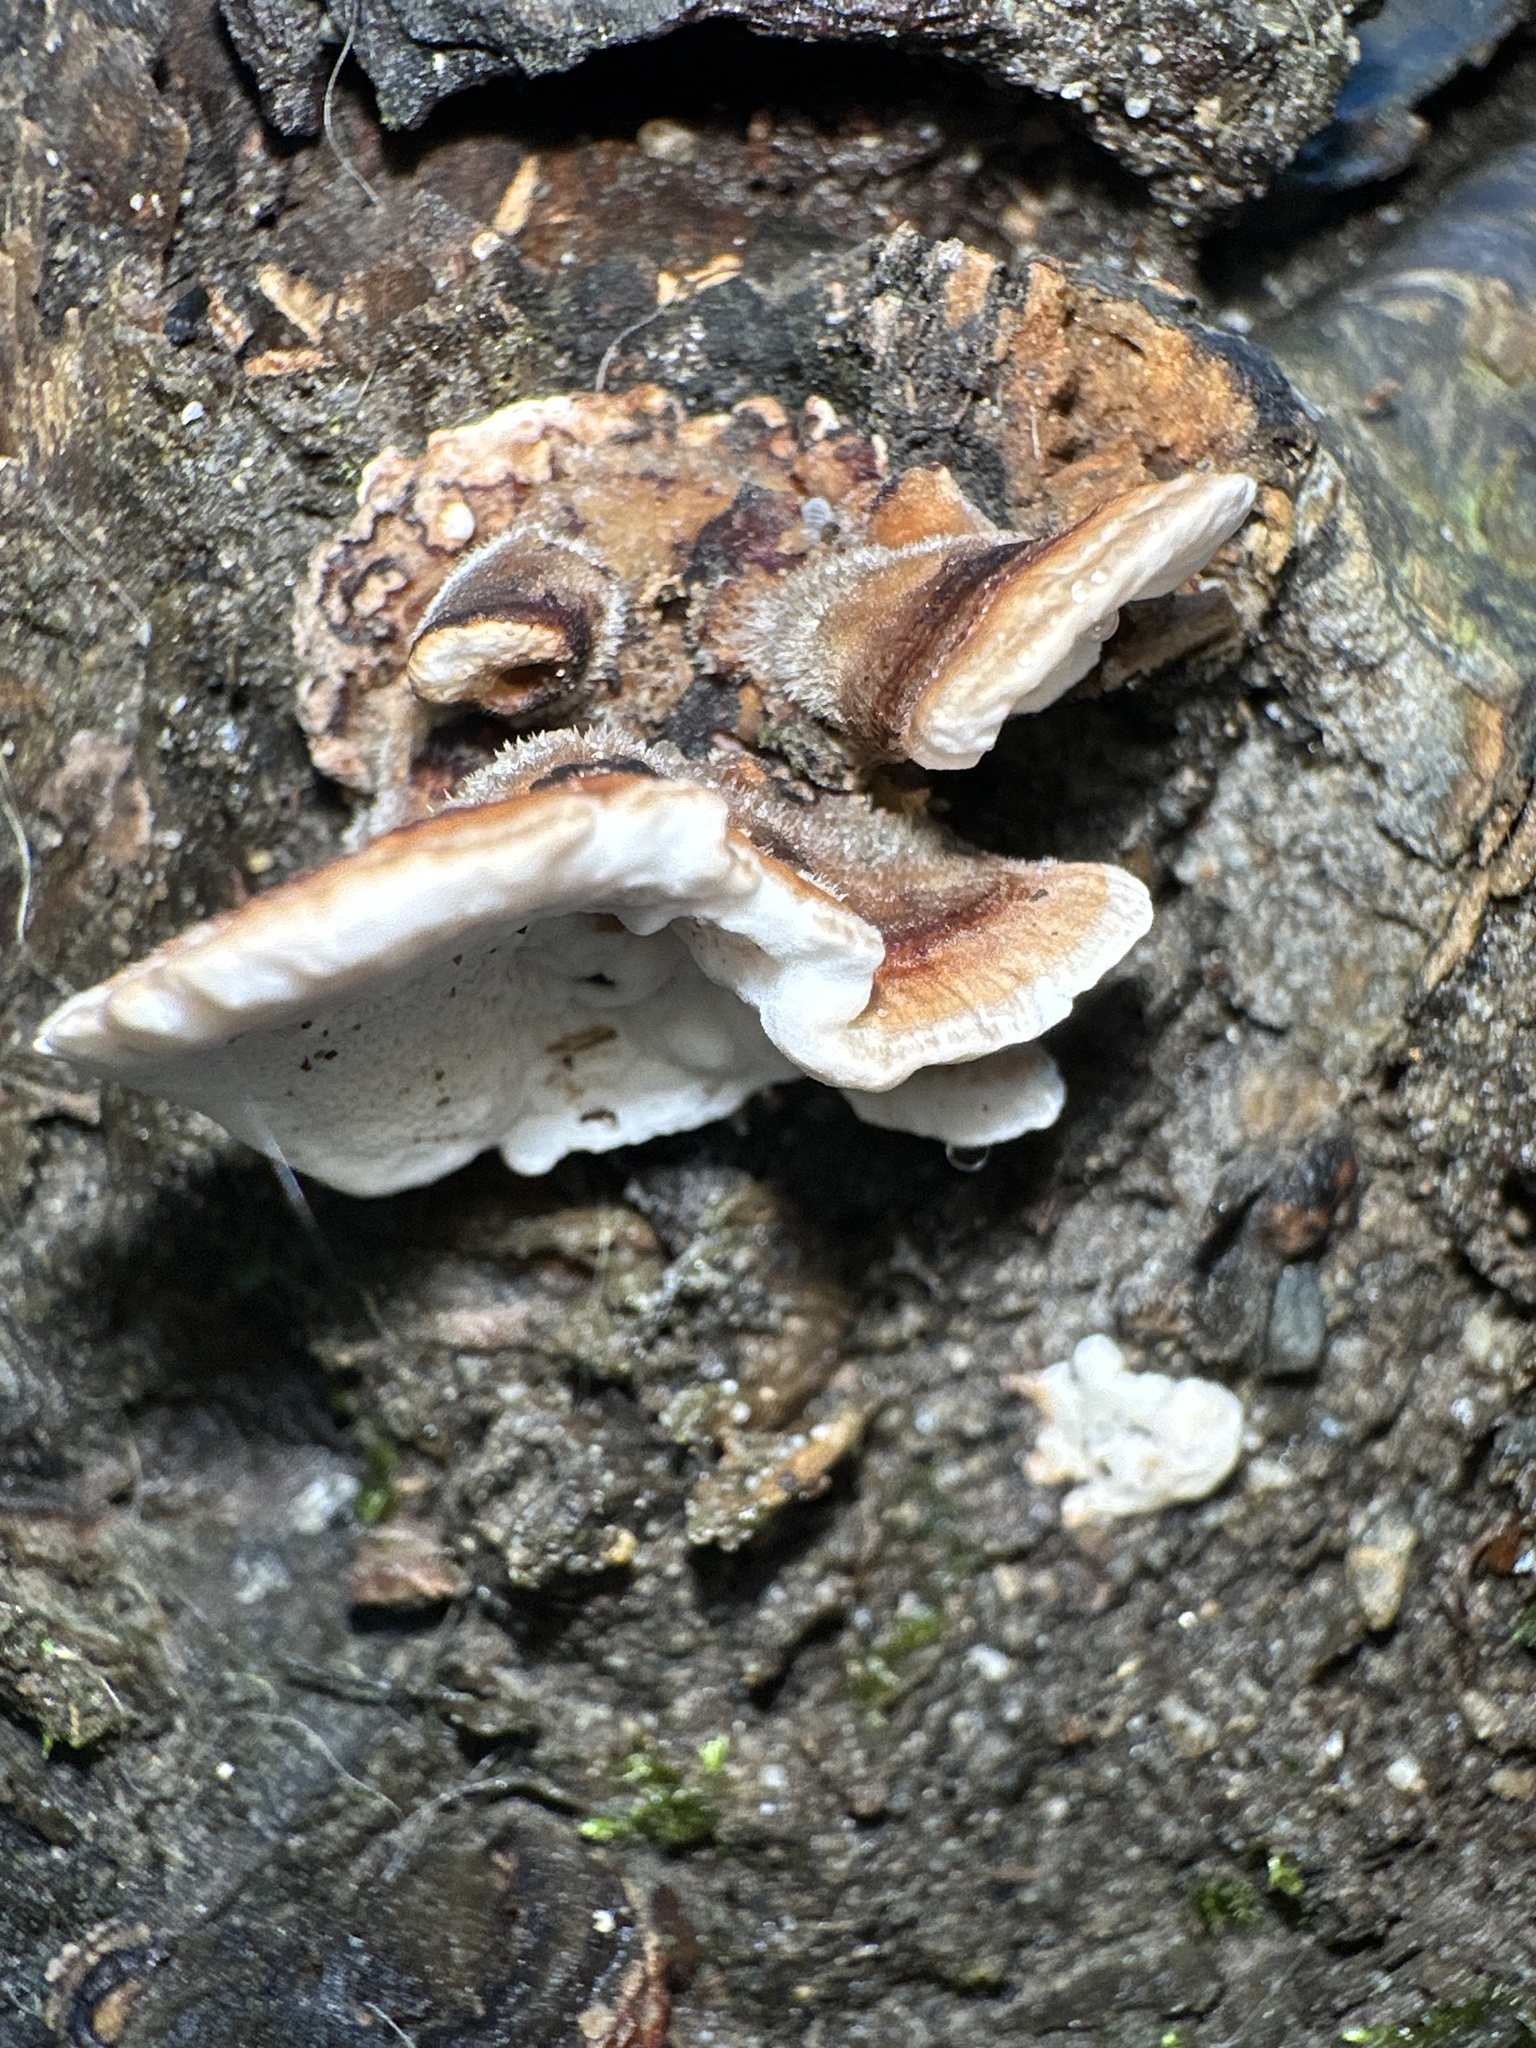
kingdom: Fungi
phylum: Basidiomycota
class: Agaricomycetes
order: Polyporales
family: Polyporaceae
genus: Trametes
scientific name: Trametes versicolor
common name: Turkeytail
